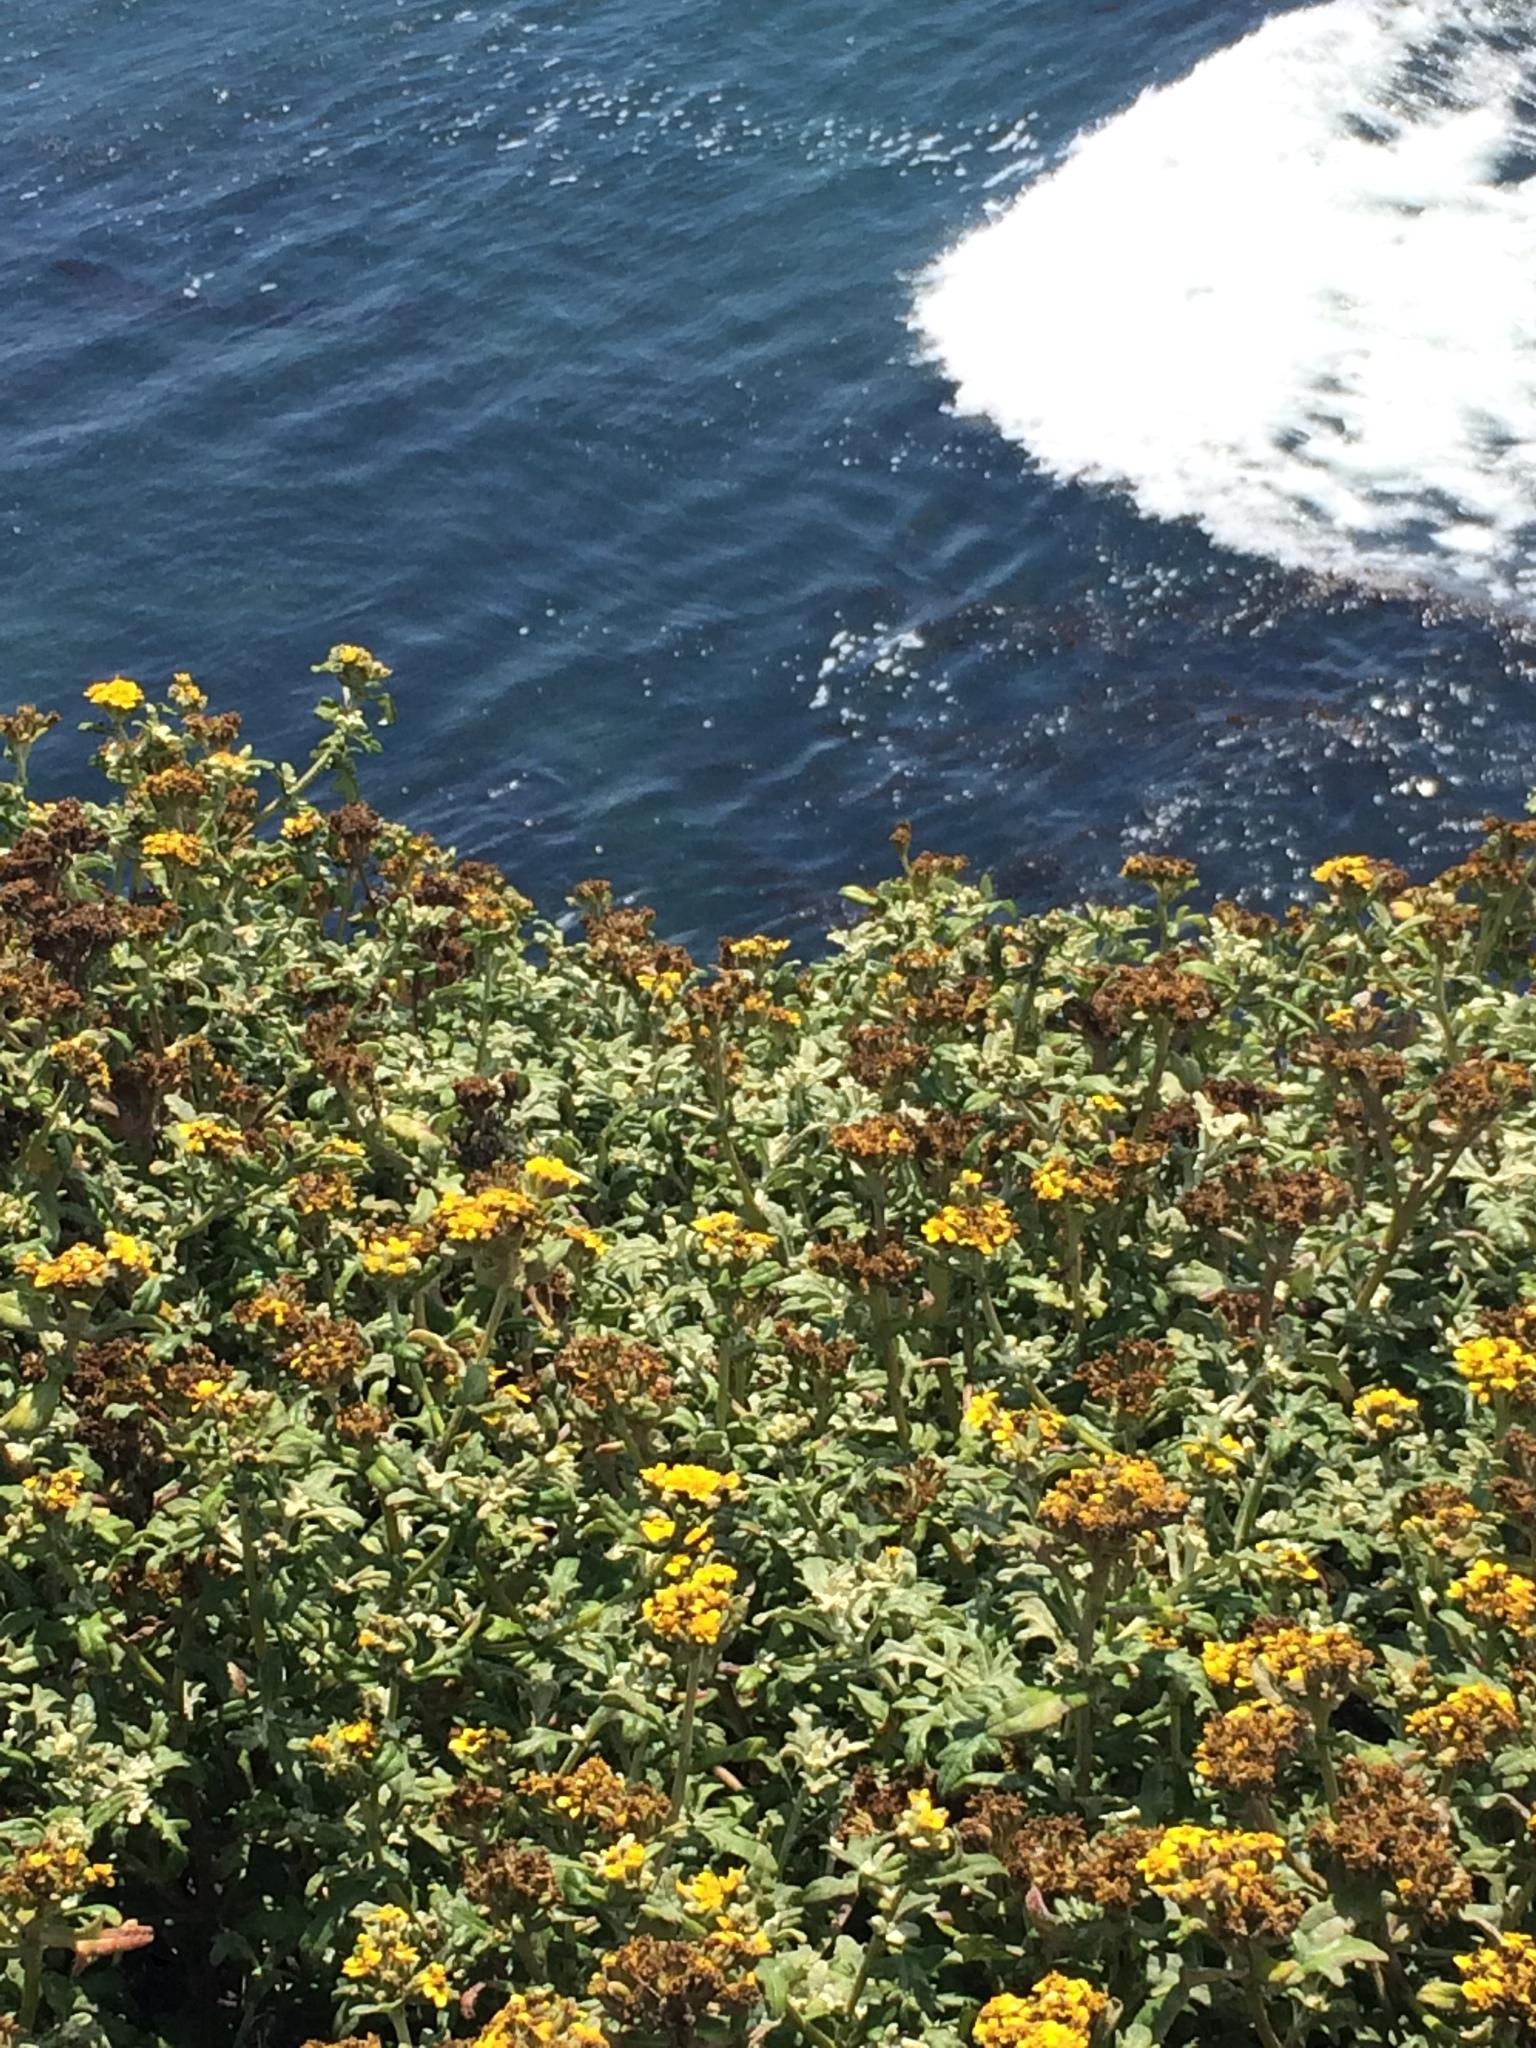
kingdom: Plantae
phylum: Tracheophyta
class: Magnoliopsida
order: Asterales
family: Asteraceae
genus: Eriophyllum
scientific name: Eriophyllum staechadifolium
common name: Lizardtail
